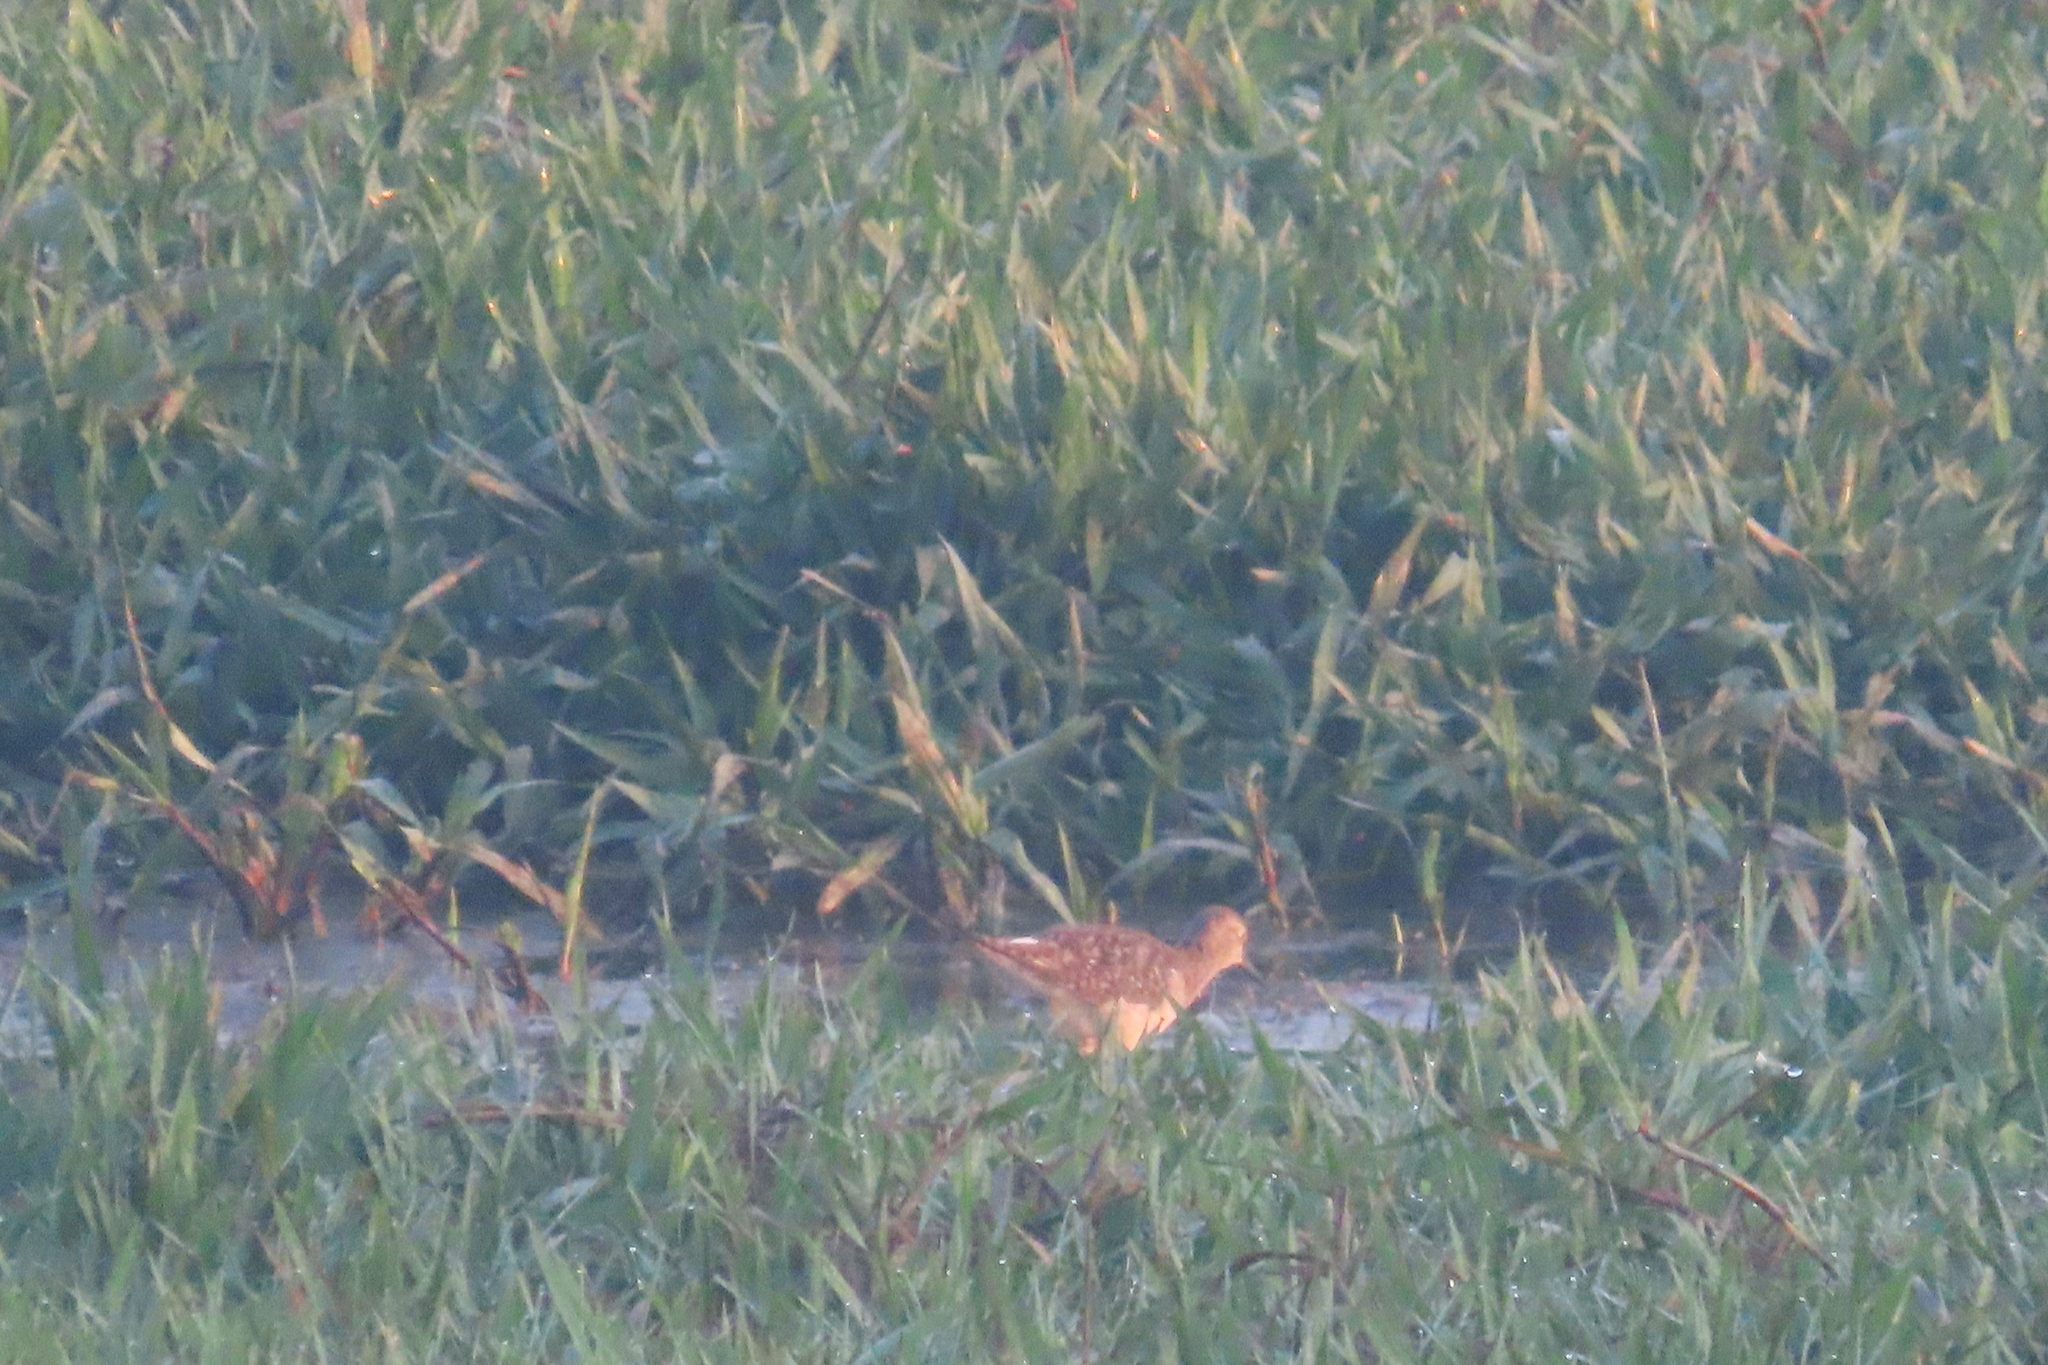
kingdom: Animalia
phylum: Chordata
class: Aves
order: Charadriiformes
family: Scolopacidae
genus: Tringa
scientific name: Tringa glareola
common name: Wood sandpiper
